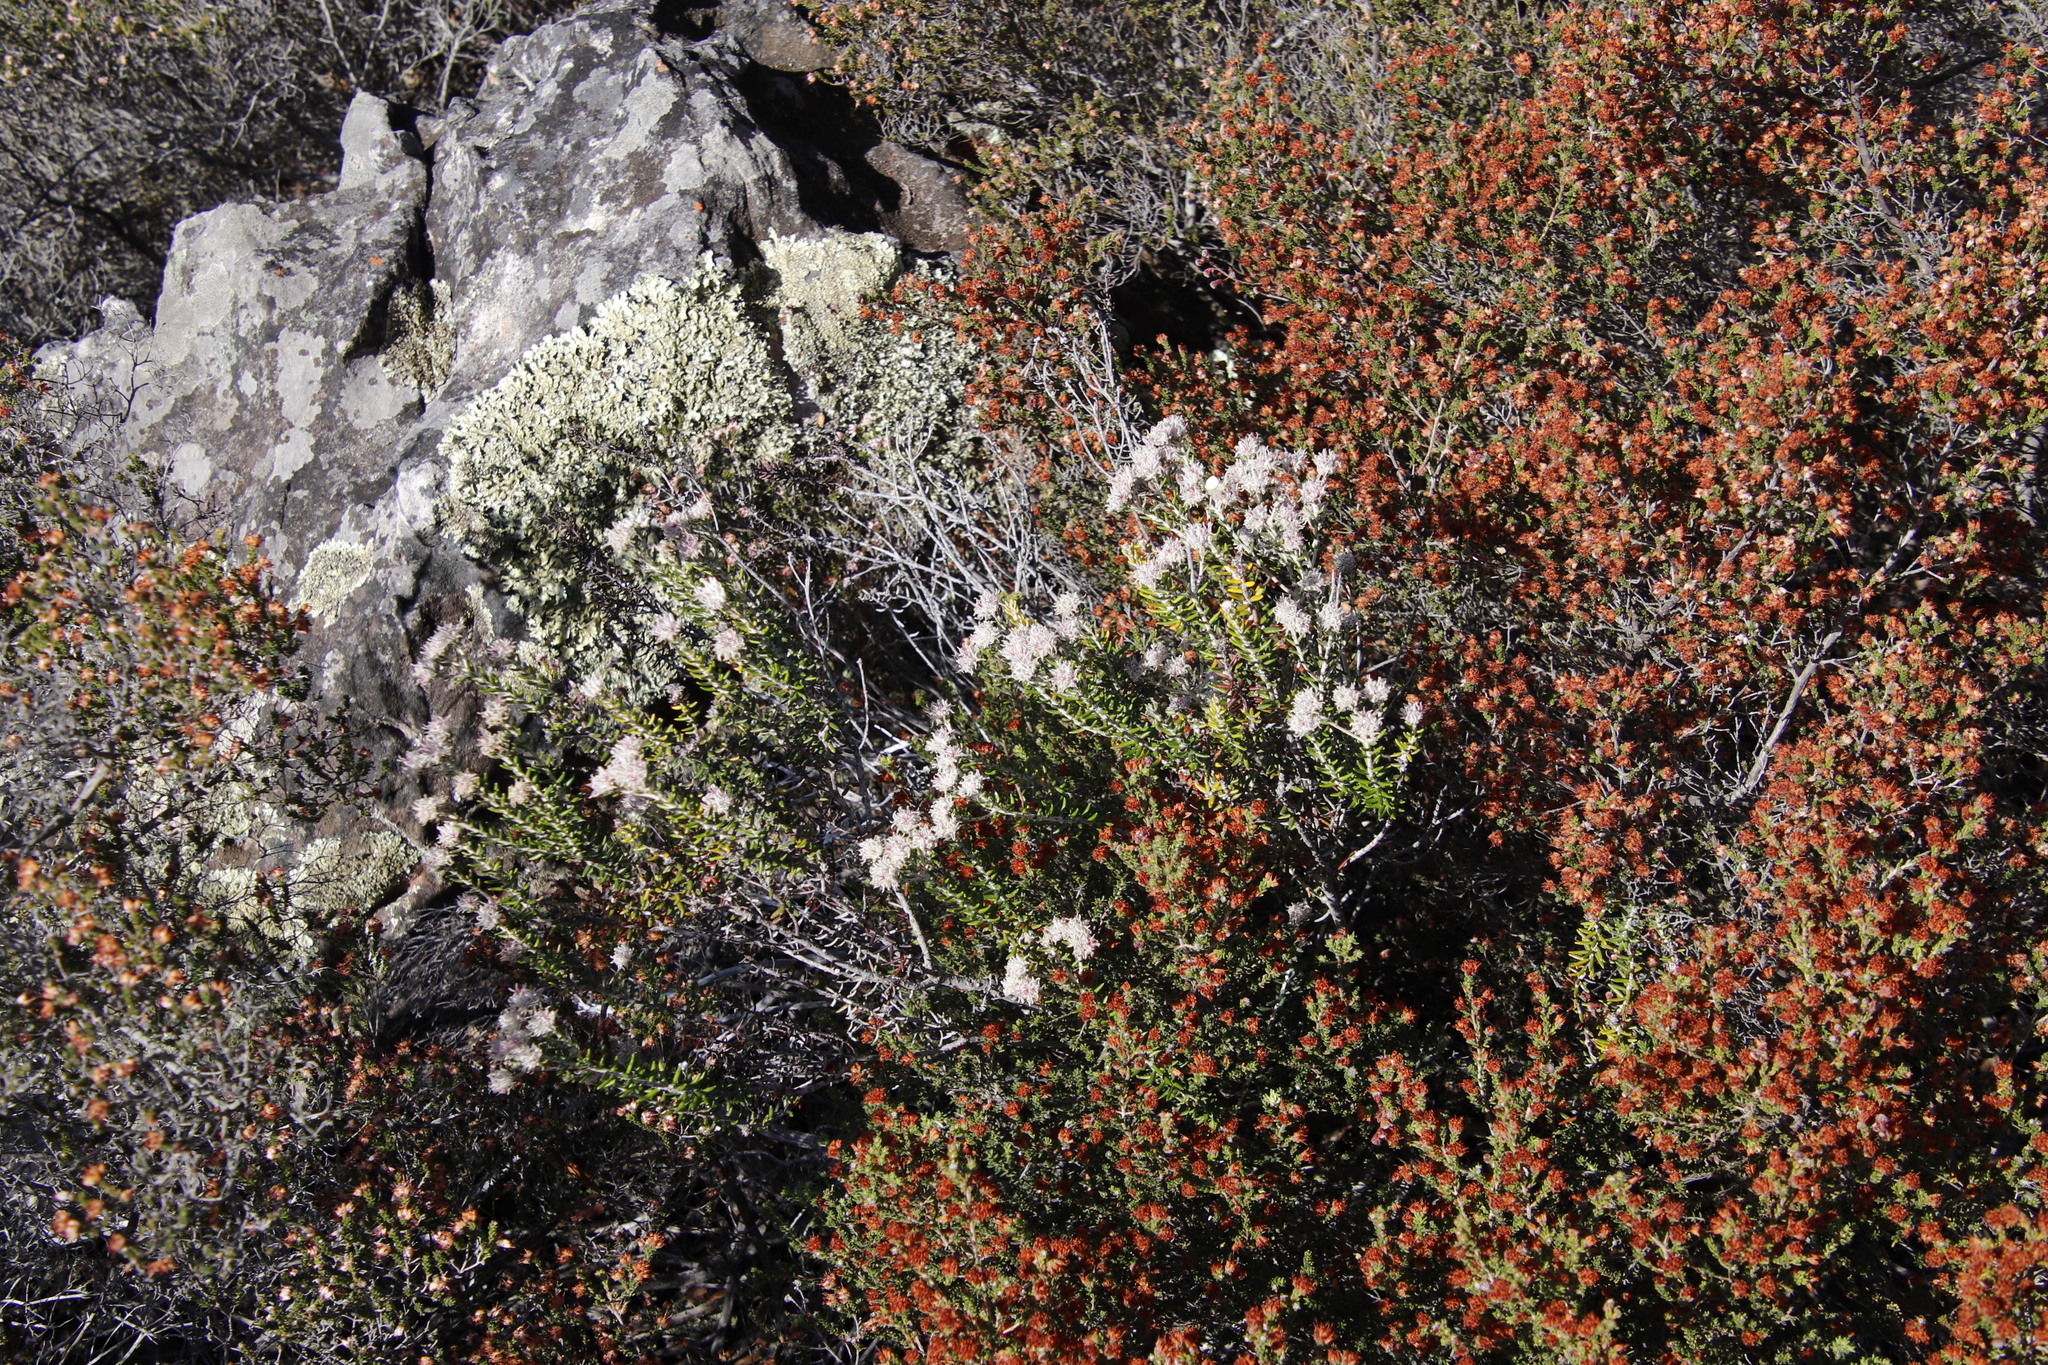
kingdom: Plantae
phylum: Tracheophyta
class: Magnoliopsida
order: Rosales
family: Rhamnaceae
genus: Trichocephalus
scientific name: Trichocephalus stipularis
